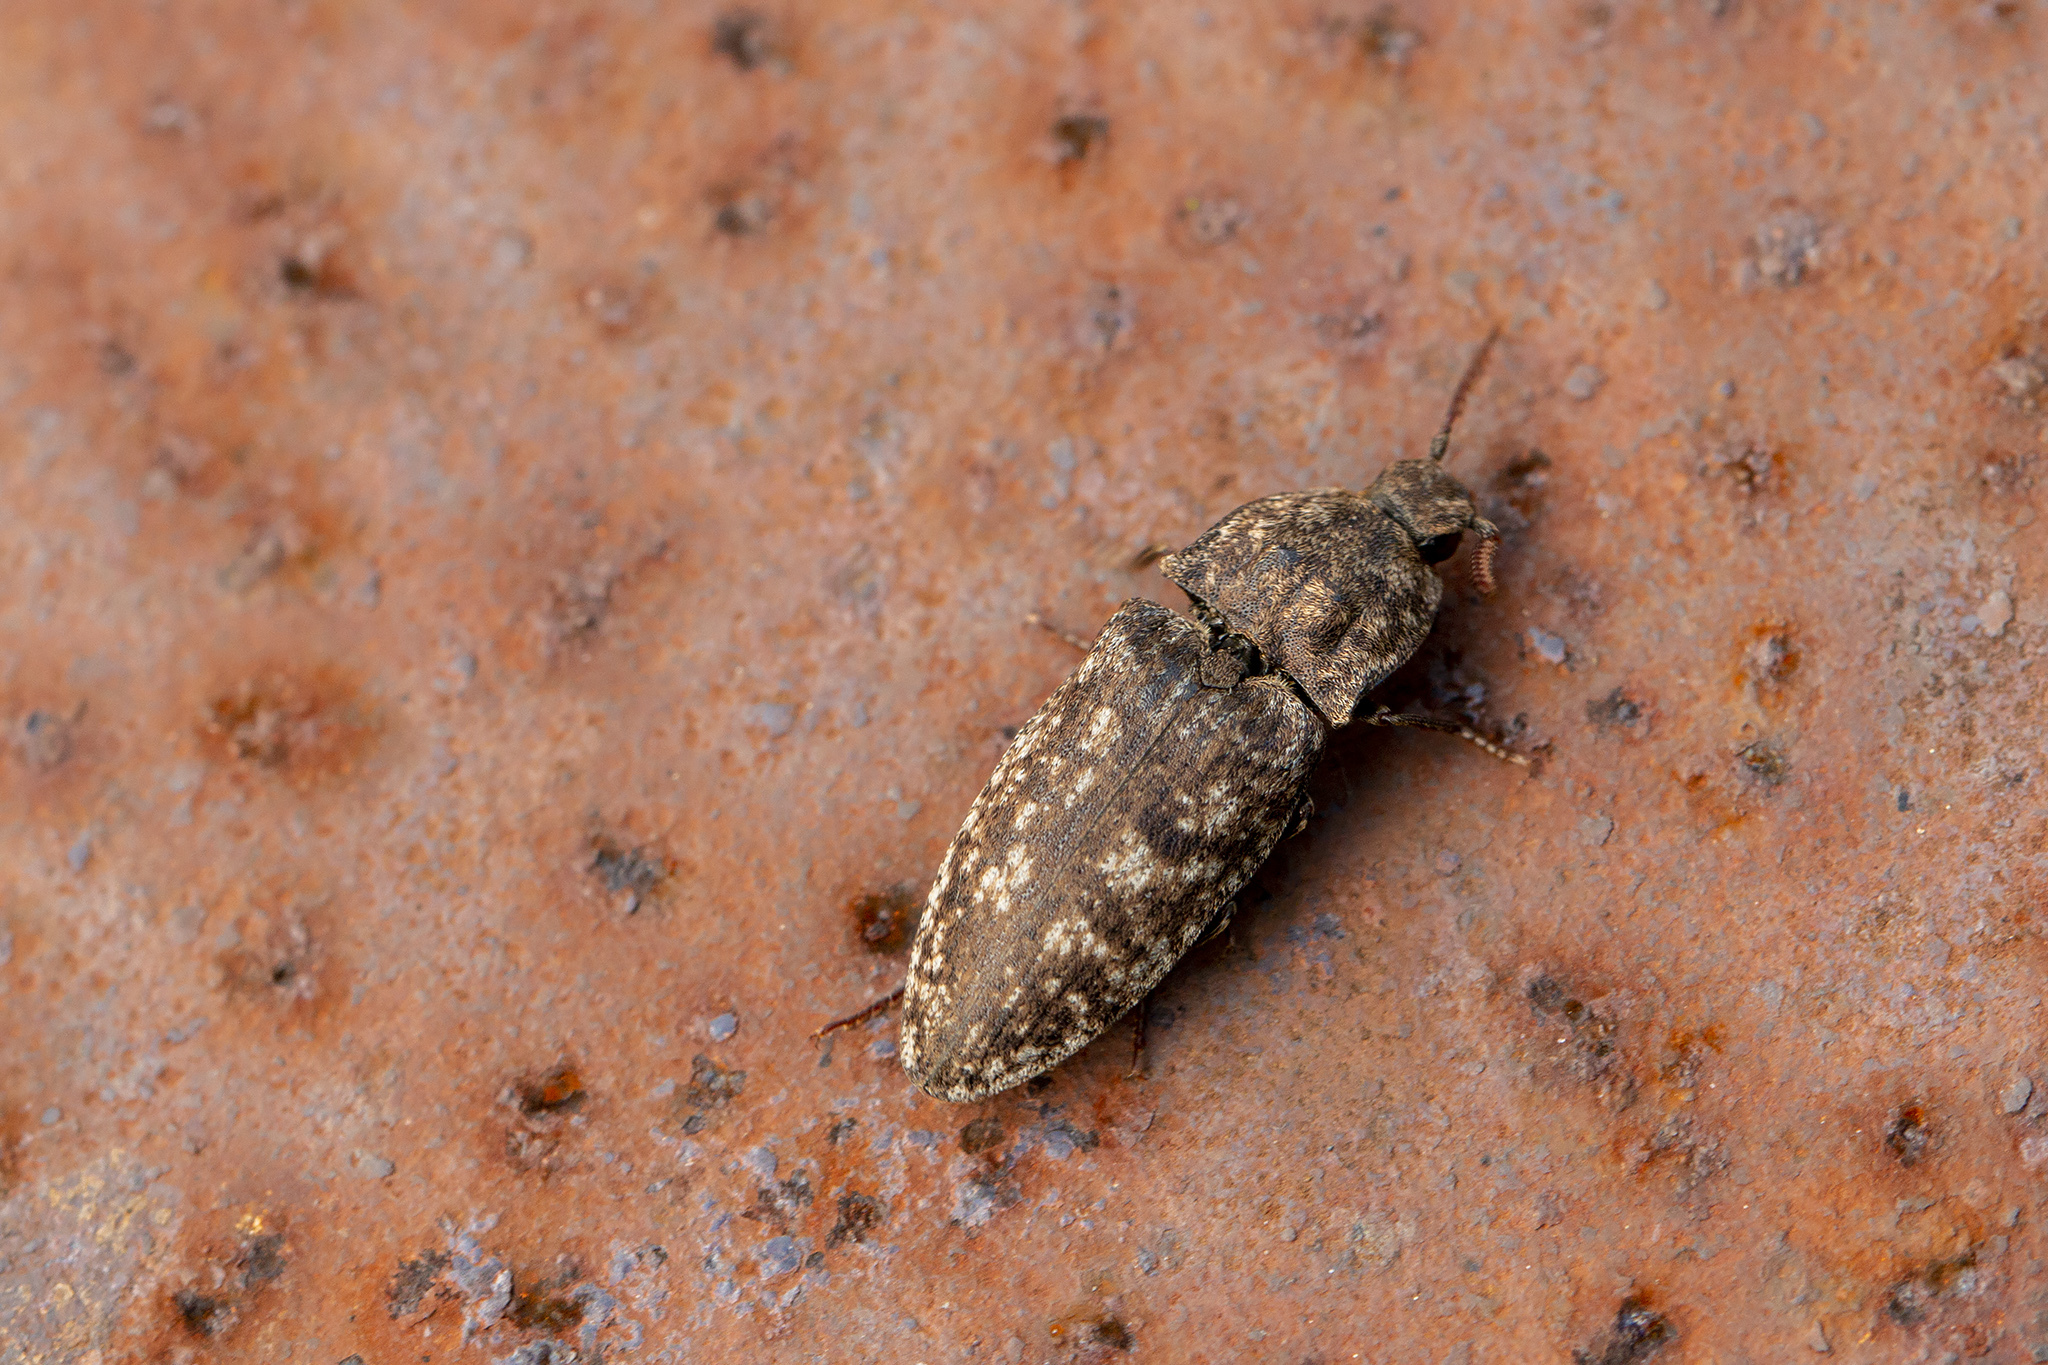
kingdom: Animalia
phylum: Arthropoda
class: Insecta
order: Coleoptera
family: Elateridae
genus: Agrypnus
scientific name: Agrypnus murinus
